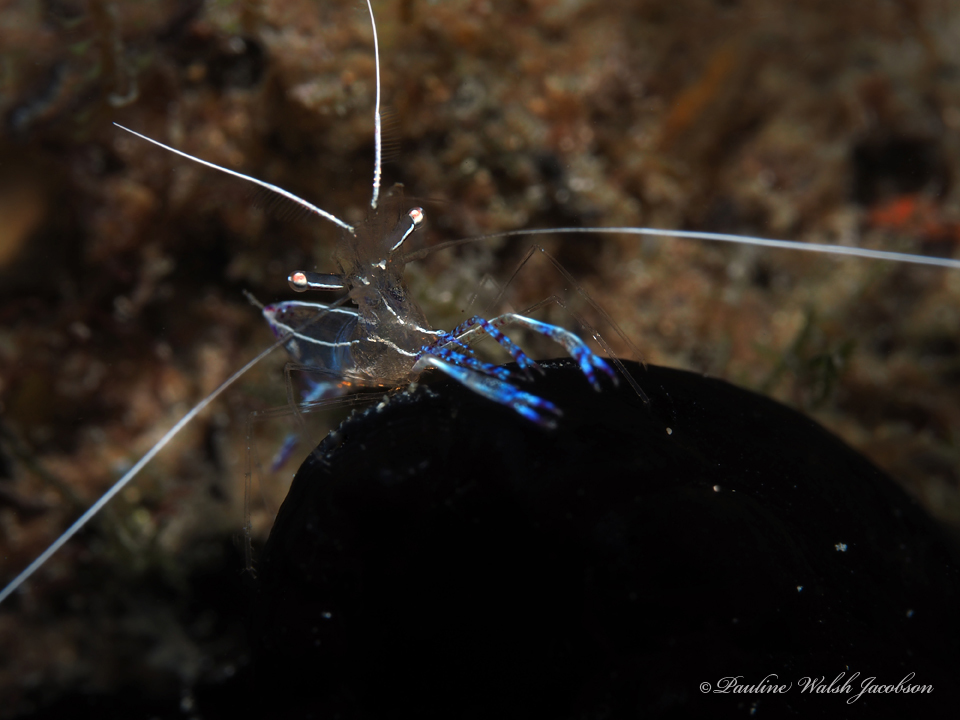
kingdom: Animalia
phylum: Arthropoda
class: Malacostraca
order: Decapoda
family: Palaemonidae
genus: Ancylomenes
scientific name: Ancylomenes pedersoni
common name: Pederson's cleaning shrimp
